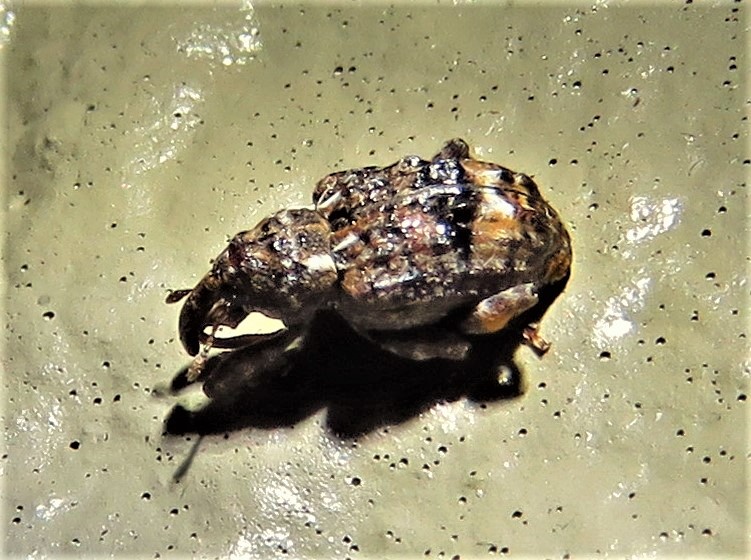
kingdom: Animalia
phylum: Arthropoda
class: Insecta
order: Coleoptera
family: Curculionidae
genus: Conotrachelus
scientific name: Conotrachelus nenuphar
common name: Plum curculio
